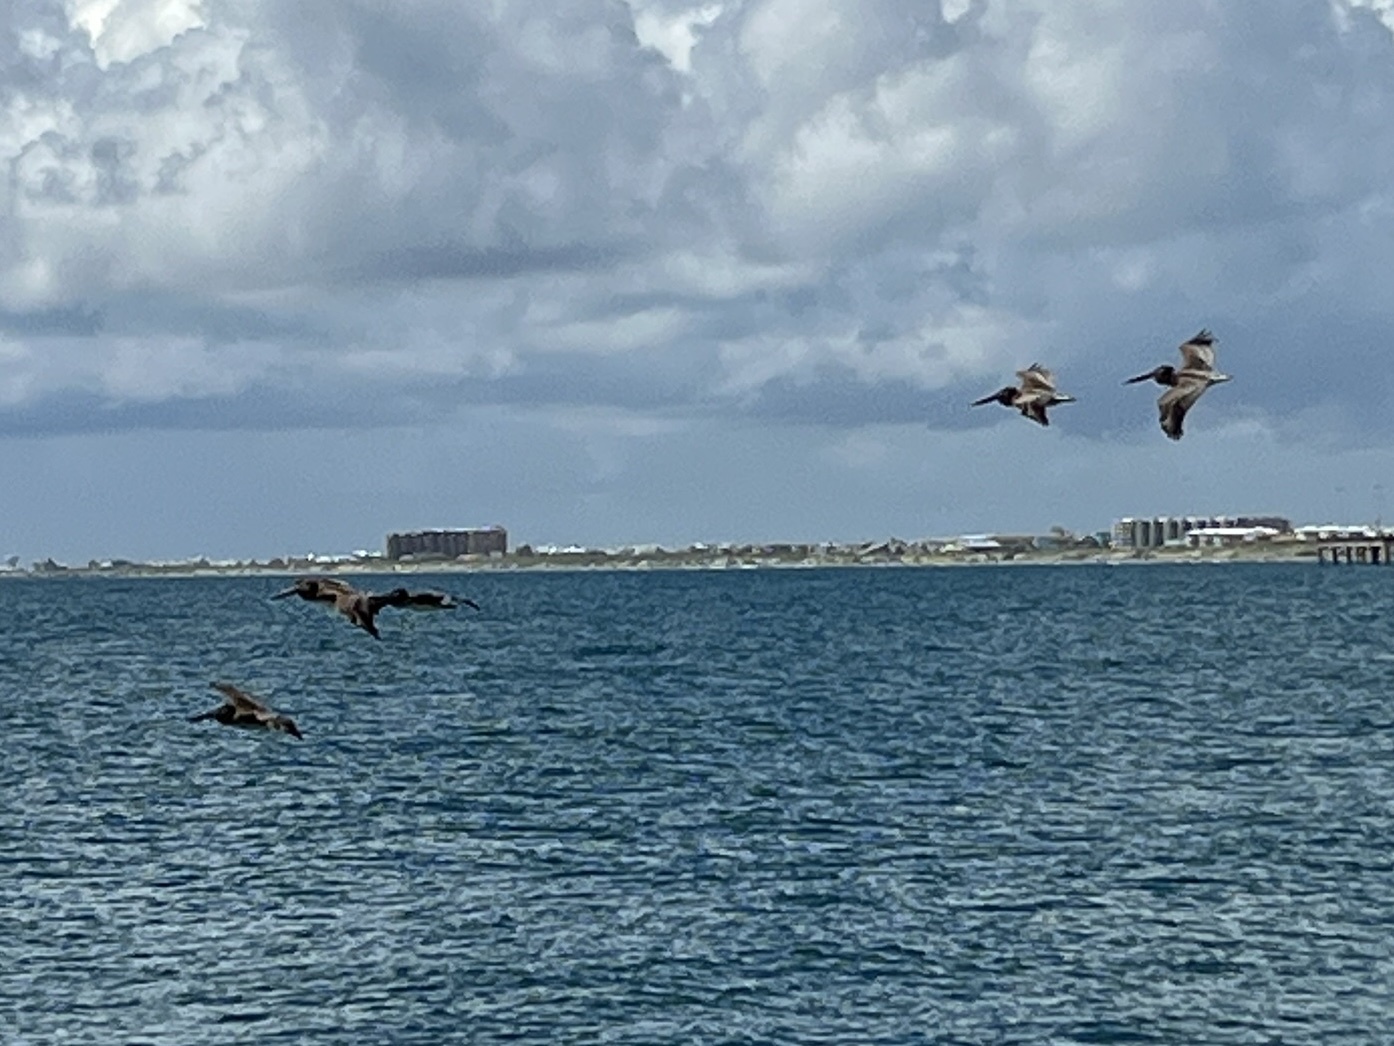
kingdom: Animalia
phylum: Chordata
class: Aves
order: Pelecaniformes
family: Pelecanidae
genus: Pelecanus
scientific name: Pelecanus occidentalis
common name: Brown pelican
